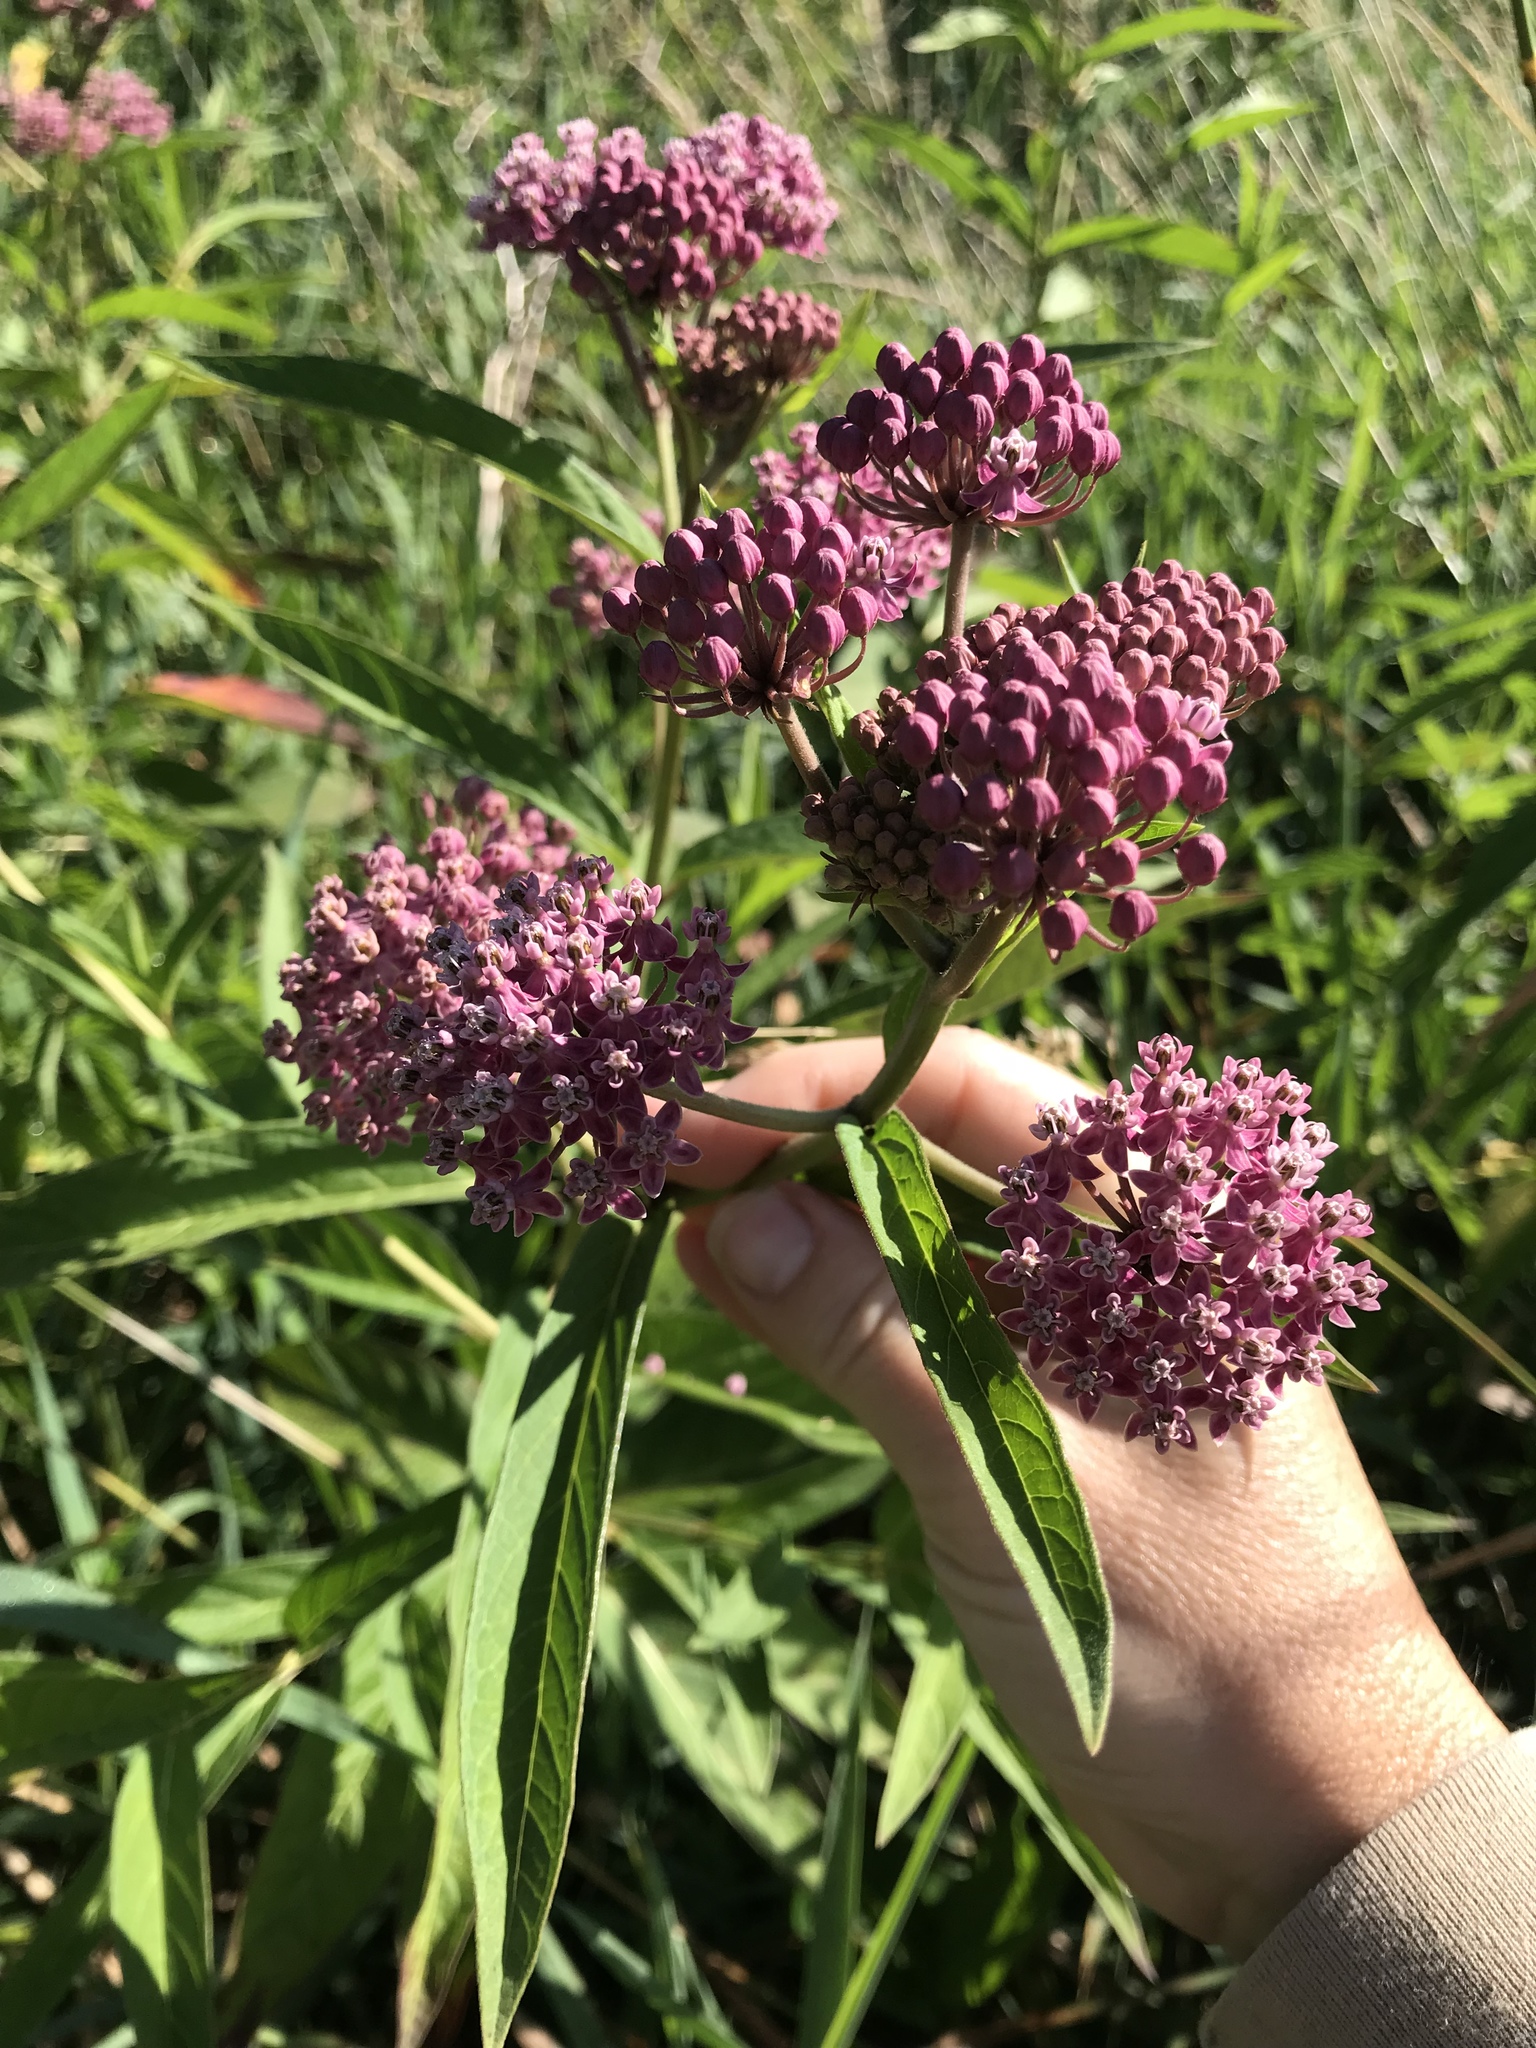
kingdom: Plantae
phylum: Tracheophyta
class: Magnoliopsida
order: Gentianales
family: Apocynaceae
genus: Asclepias
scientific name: Asclepias incarnata
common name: Swamp milkweed
